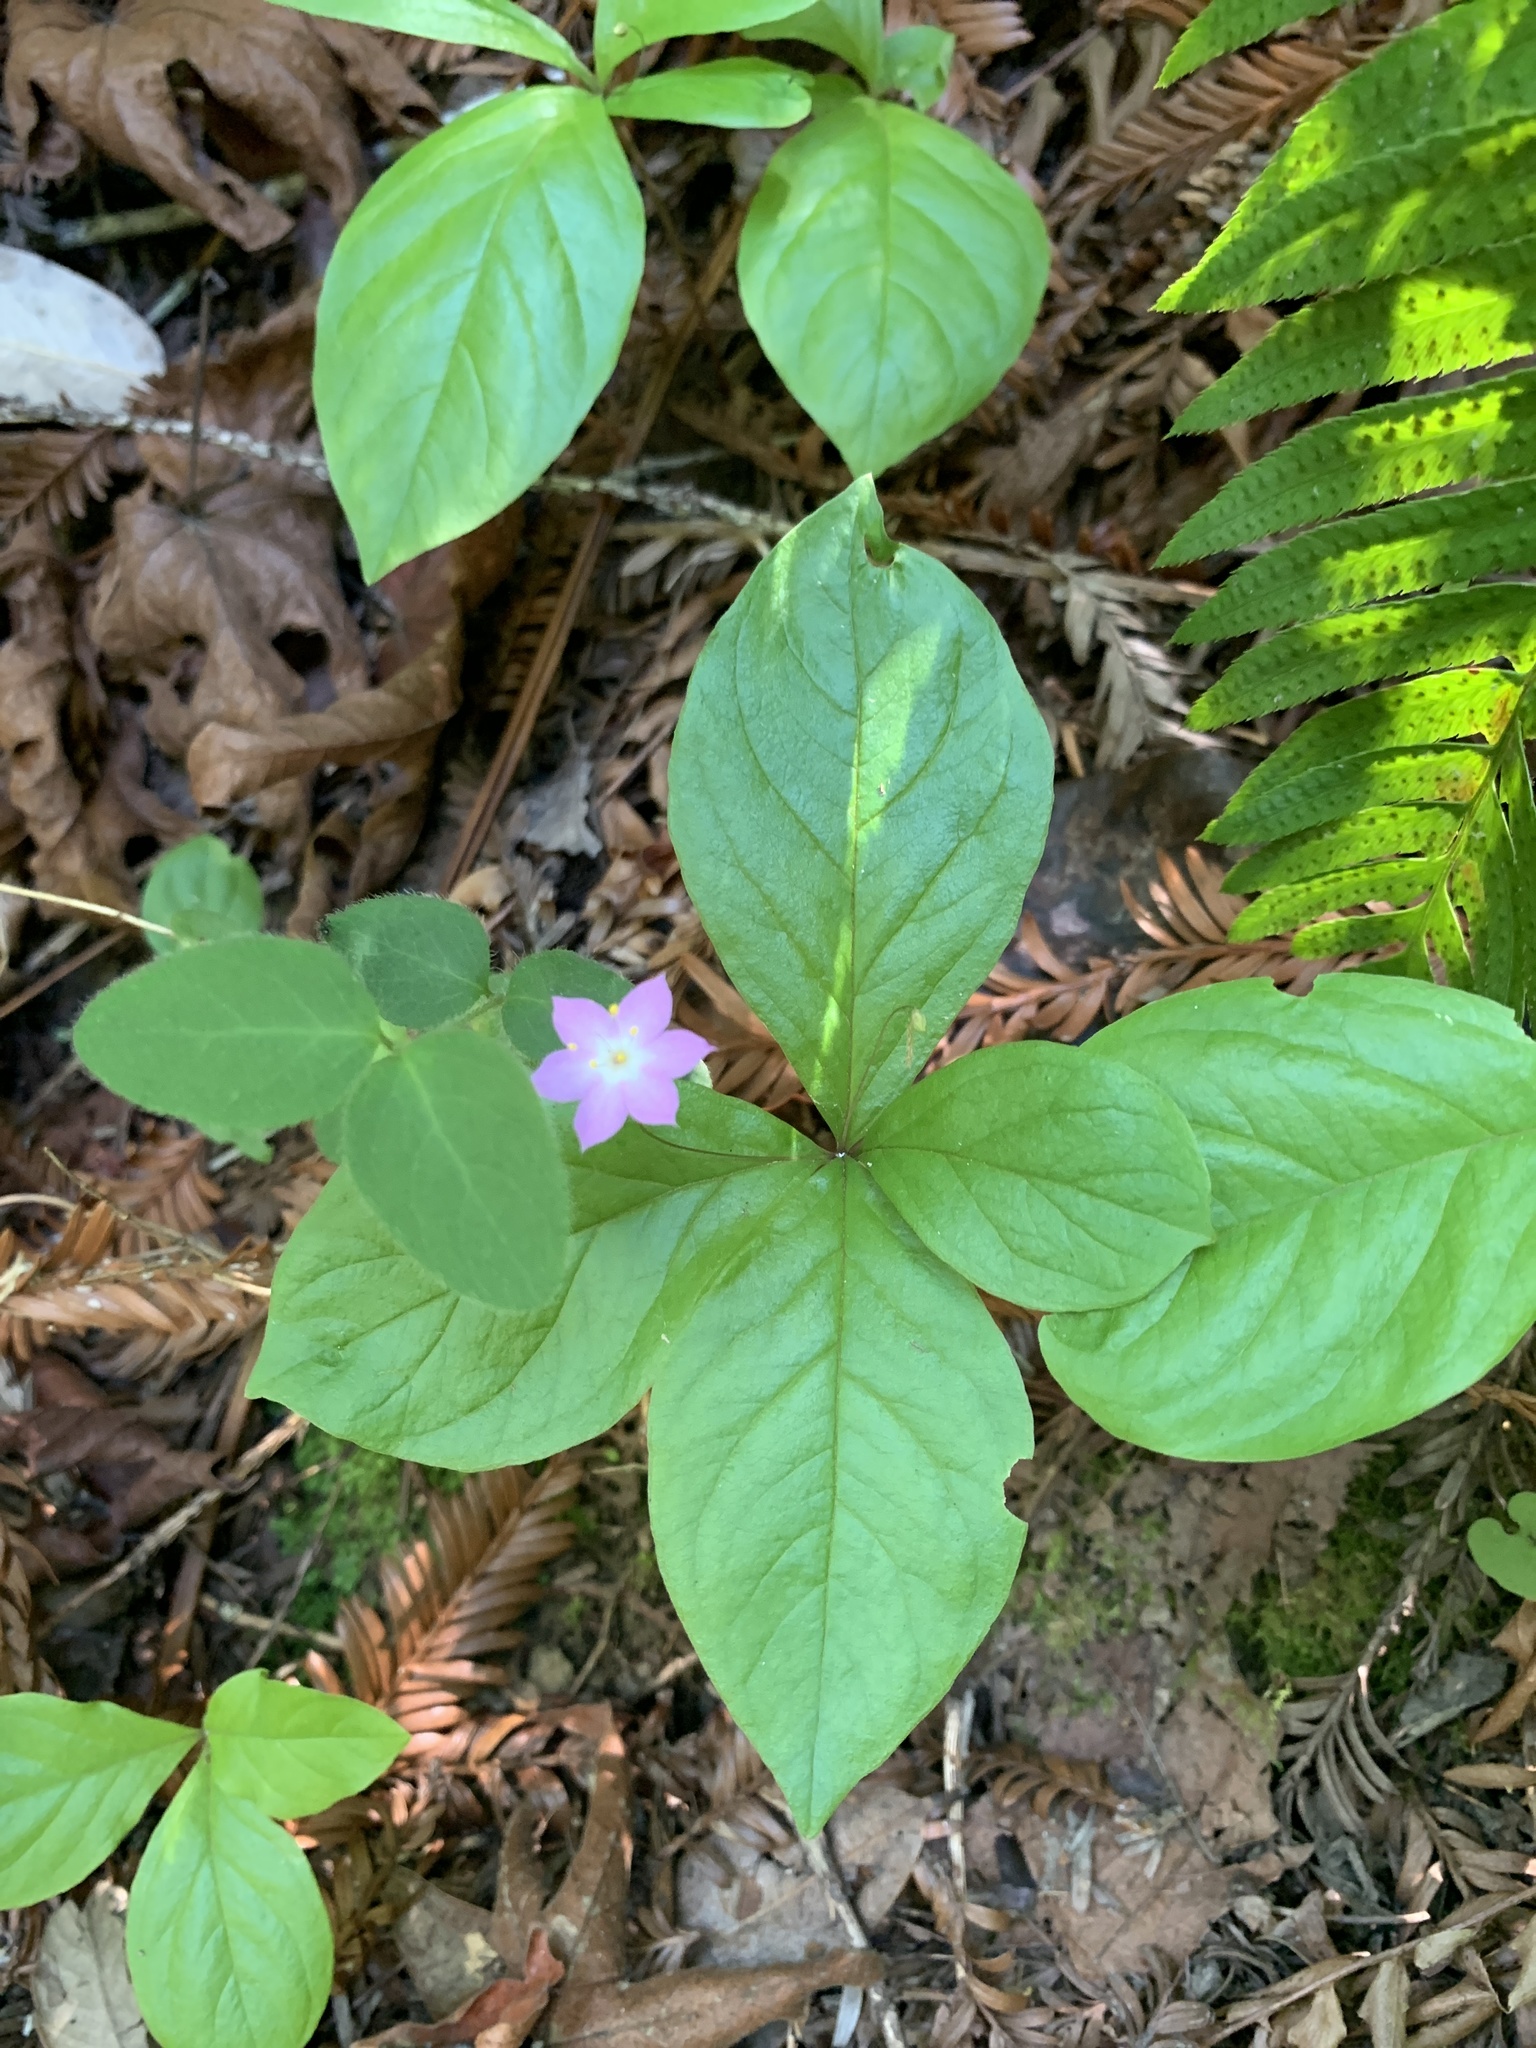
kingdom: Plantae
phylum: Tracheophyta
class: Magnoliopsida
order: Ericales
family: Primulaceae
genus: Lysimachia
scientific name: Lysimachia latifolia
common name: Pacific starflower
